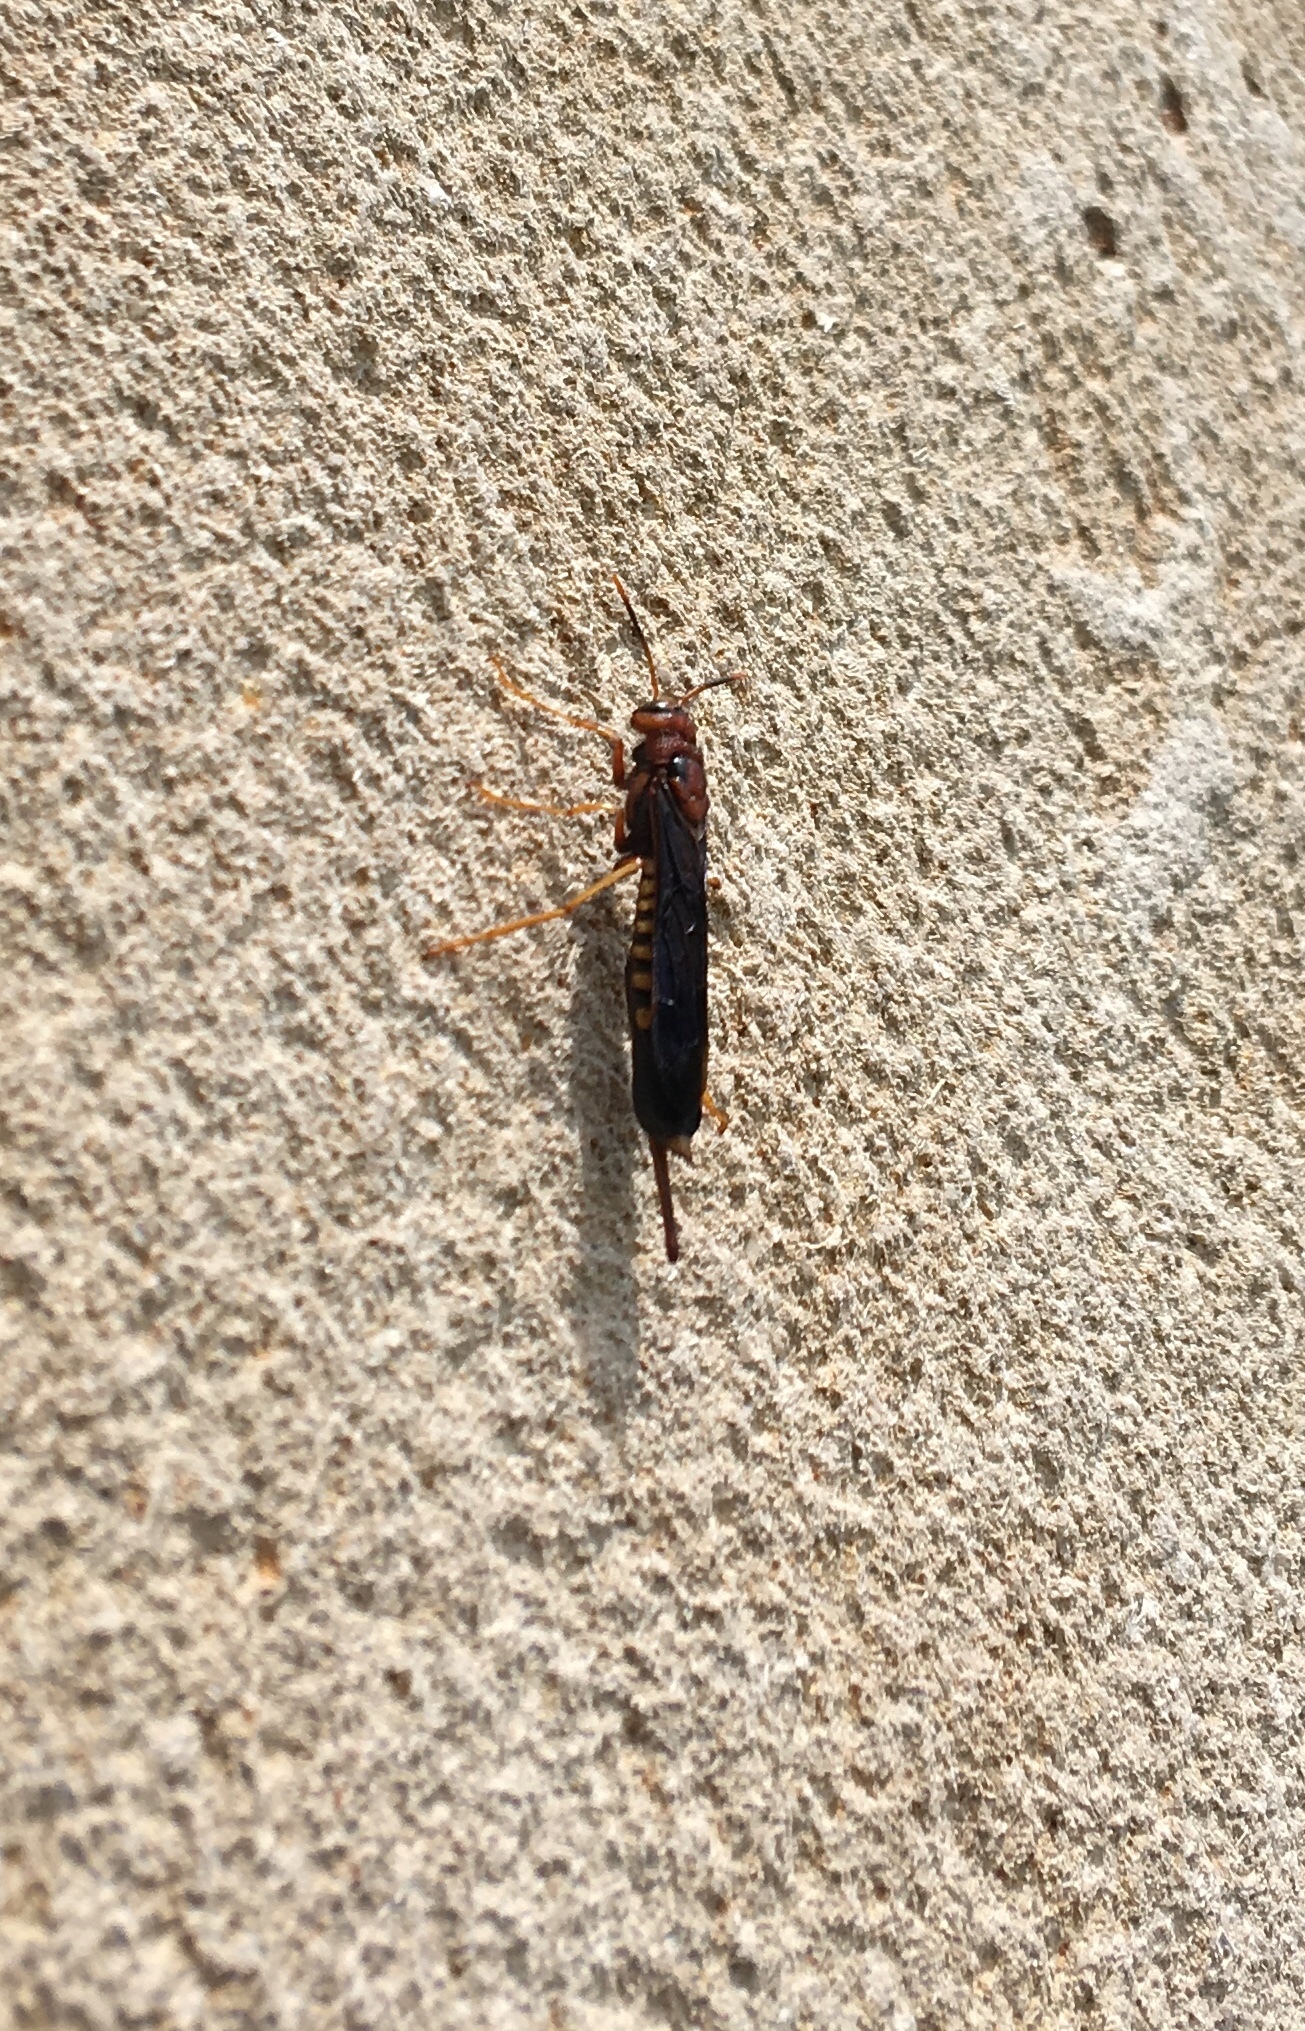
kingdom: Animalia
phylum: Arthropoda
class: Insecta
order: Hymenoptera
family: Siricidae
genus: Tremex
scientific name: Tremex columba
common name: Wasp
